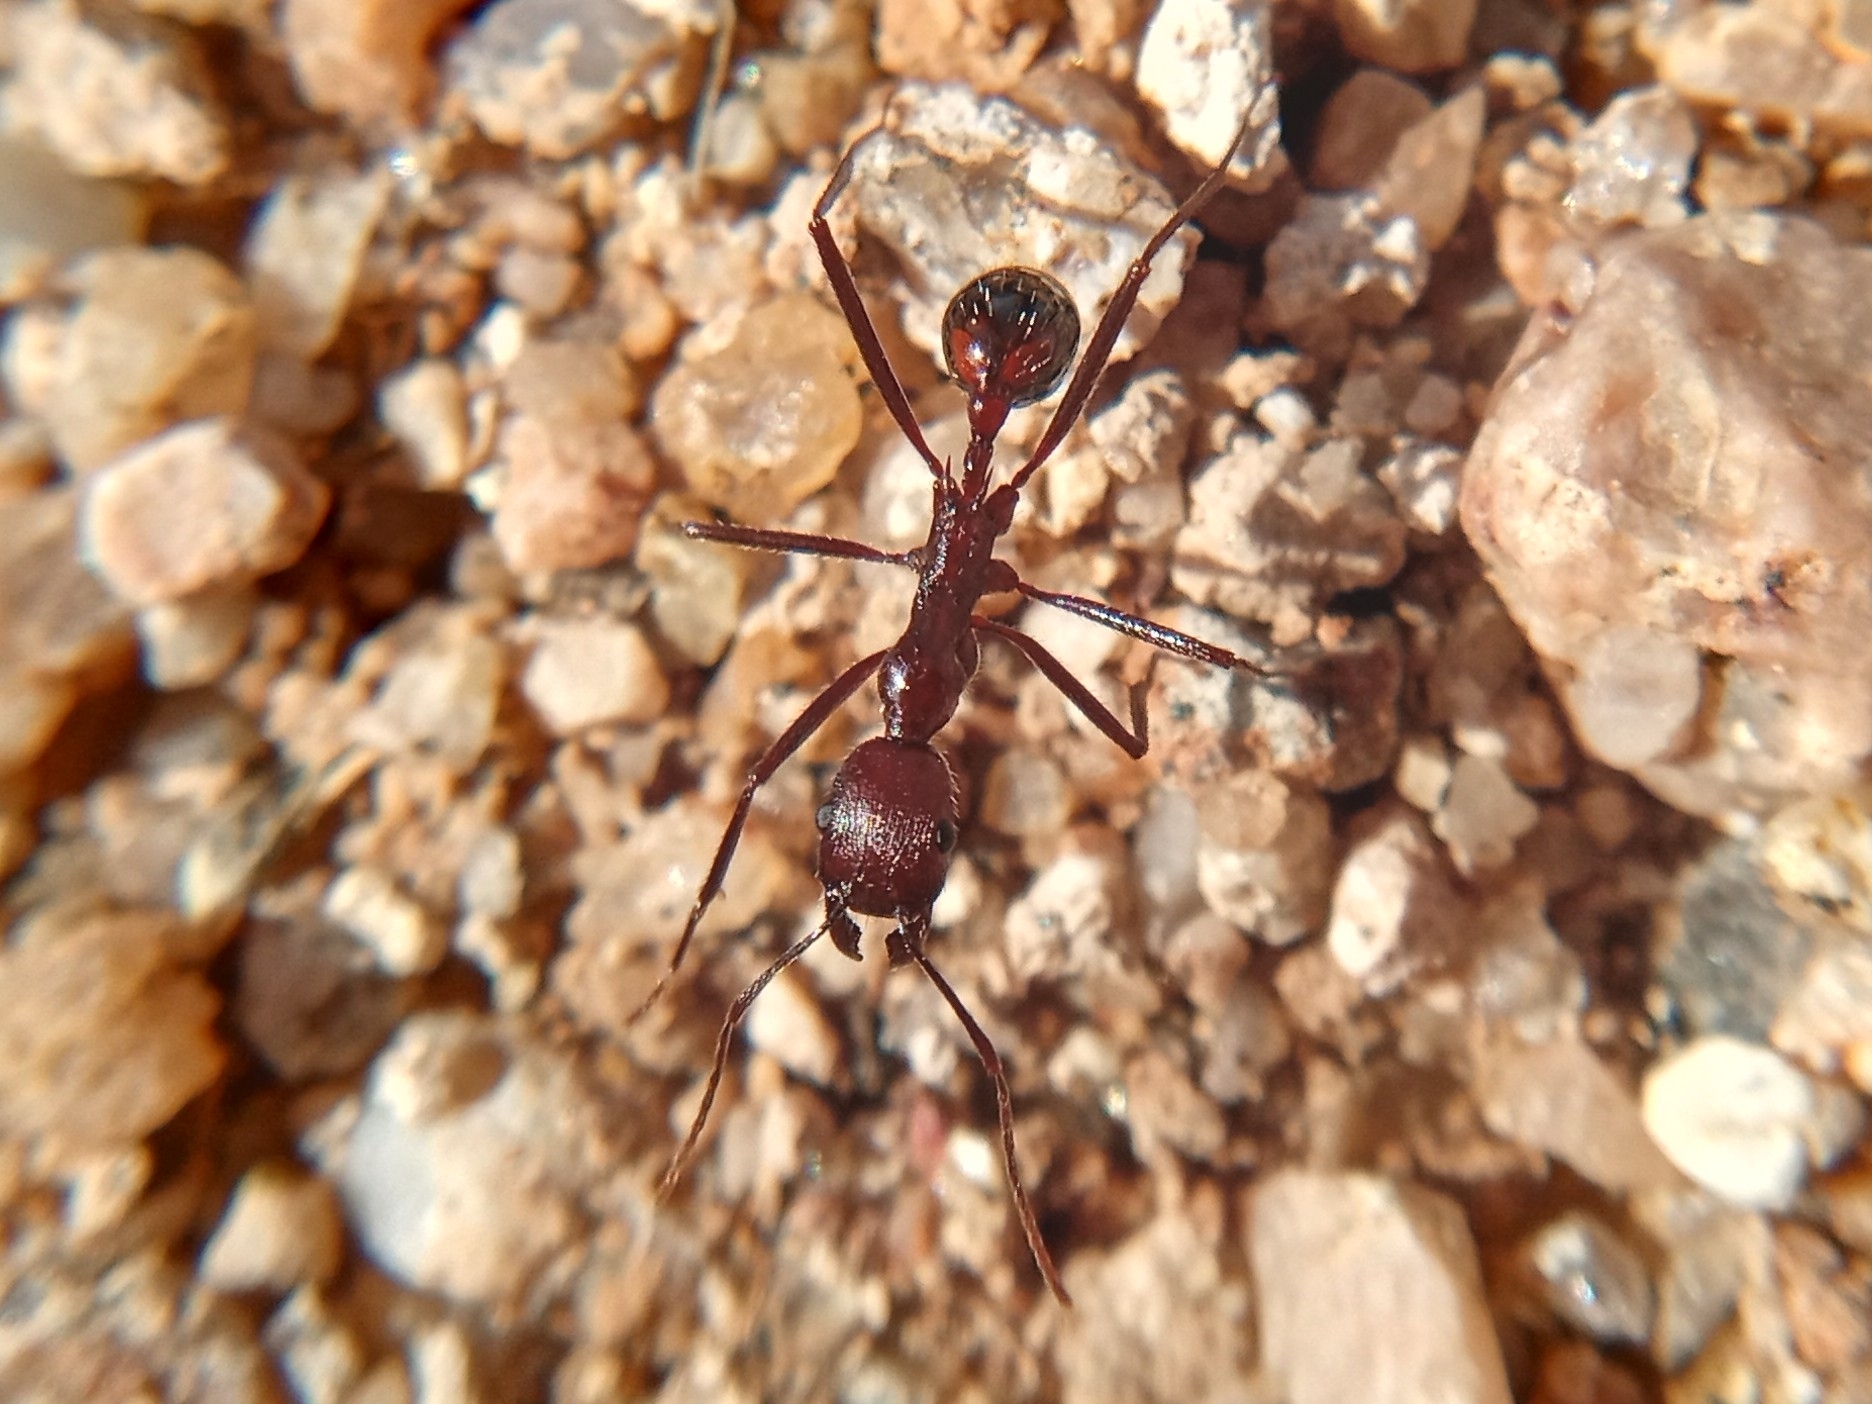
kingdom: Animalia
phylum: Arthropoda
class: Insecta
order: Hymenoptera
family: Formicidae
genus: Novomessor
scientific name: Novomessor cockerelli
